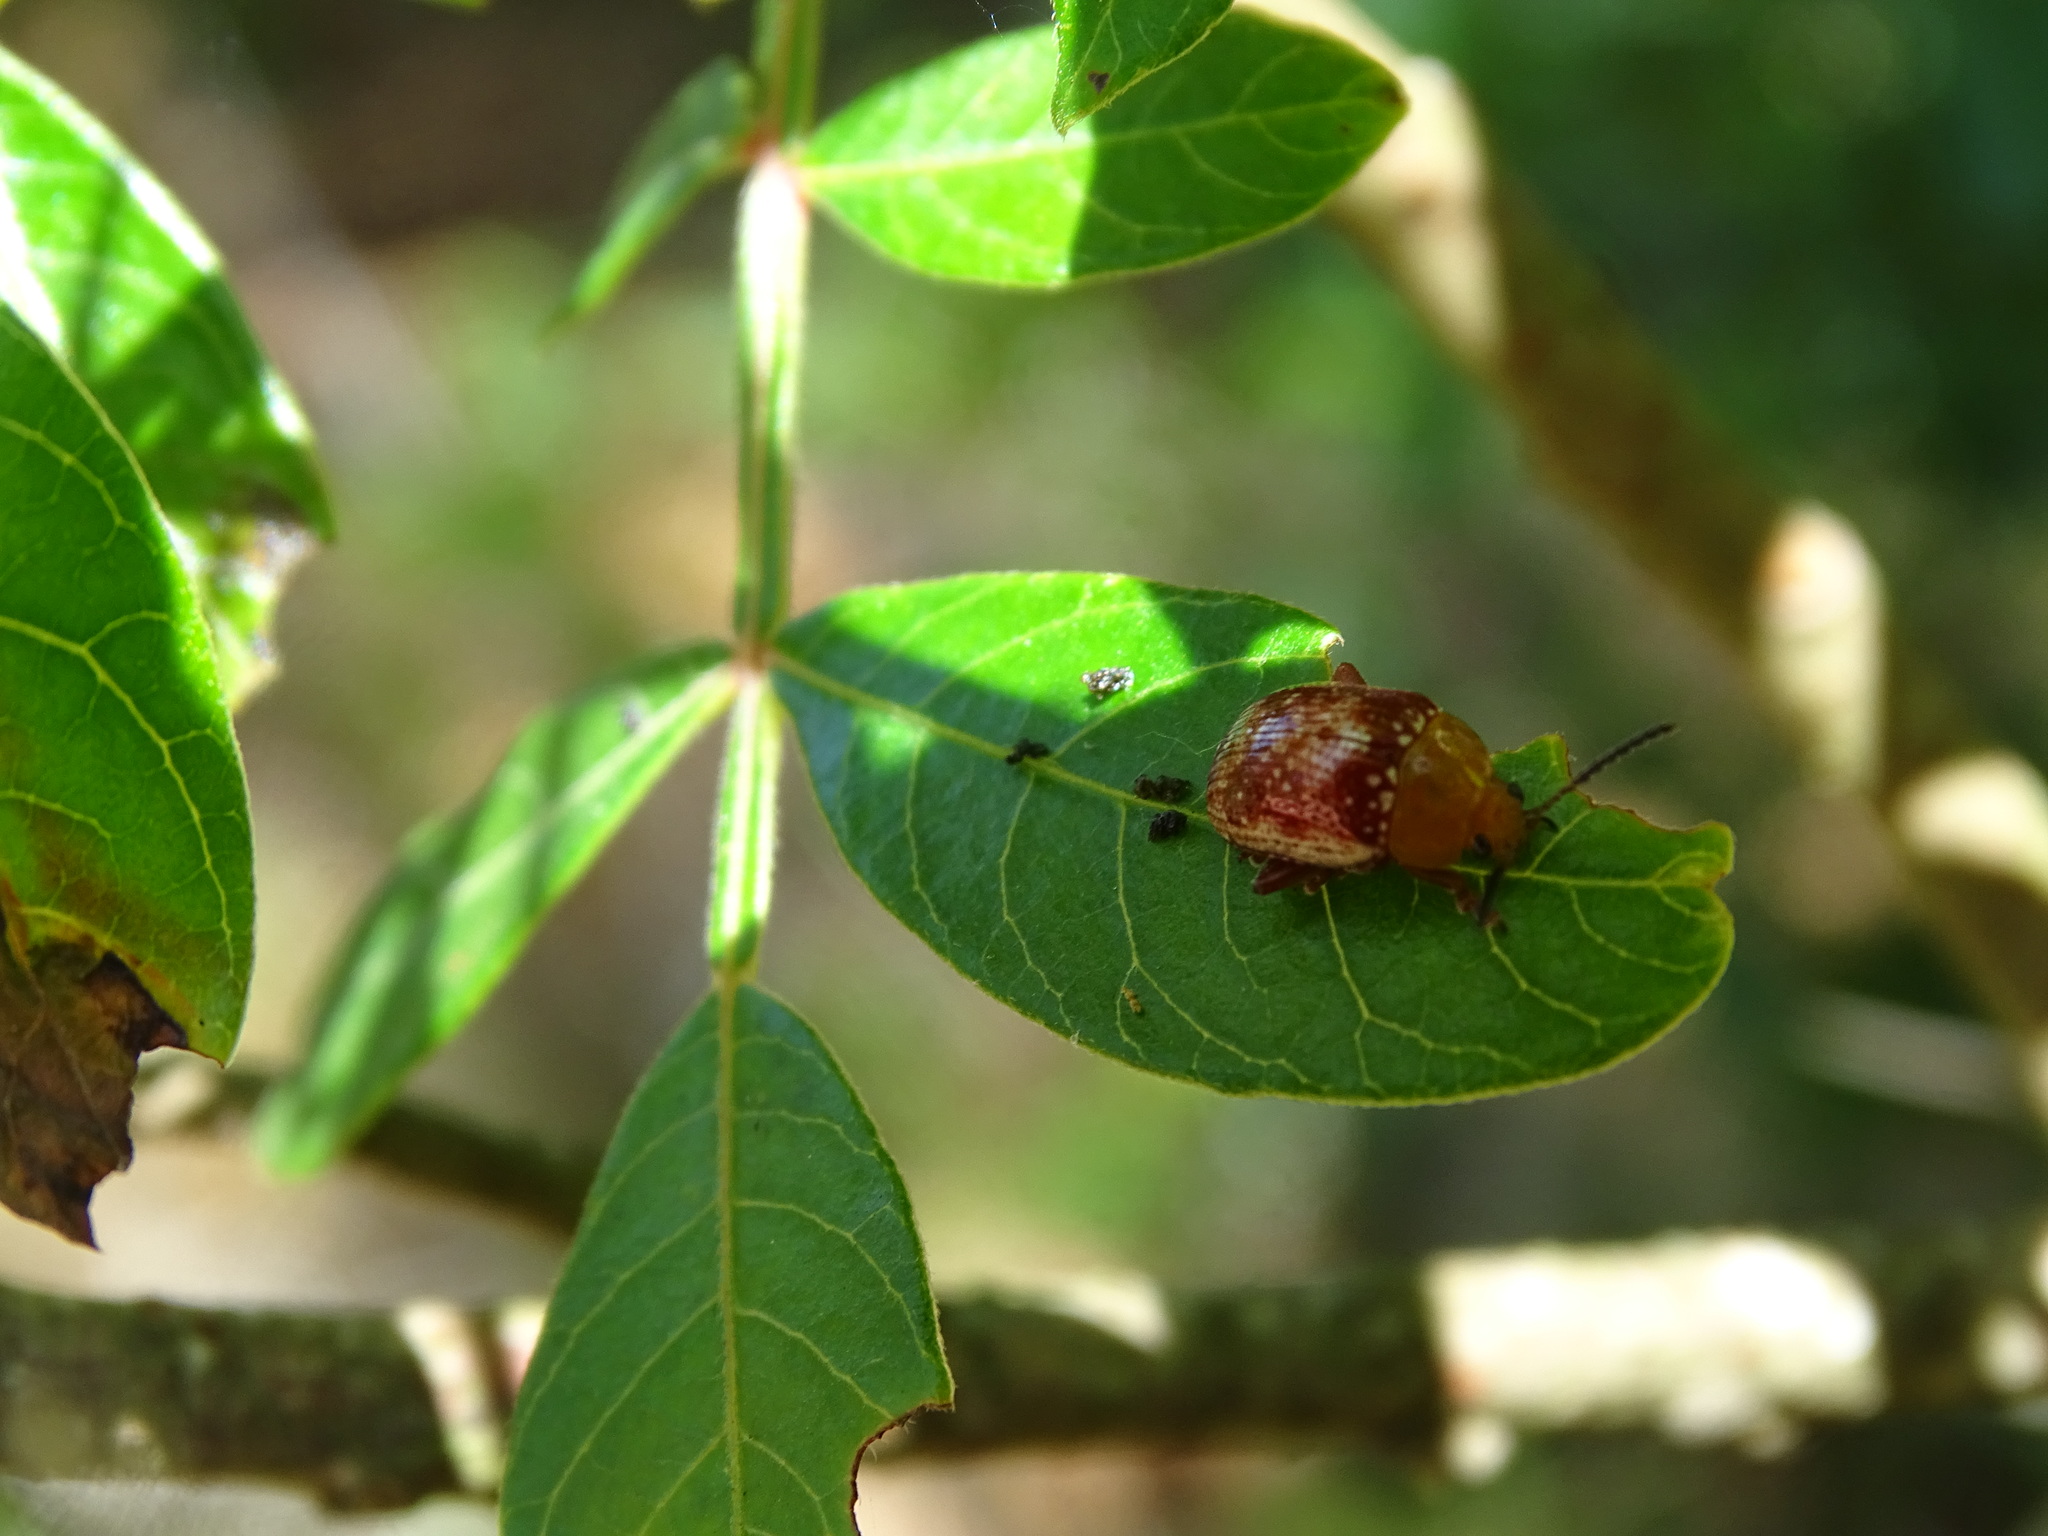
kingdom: Animalia
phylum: Arthropoda
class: Insecta
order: Coleoptera
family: Chrysomelidae
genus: Blepharida
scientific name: Blepharida rhois
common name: Sumac flea beetle
